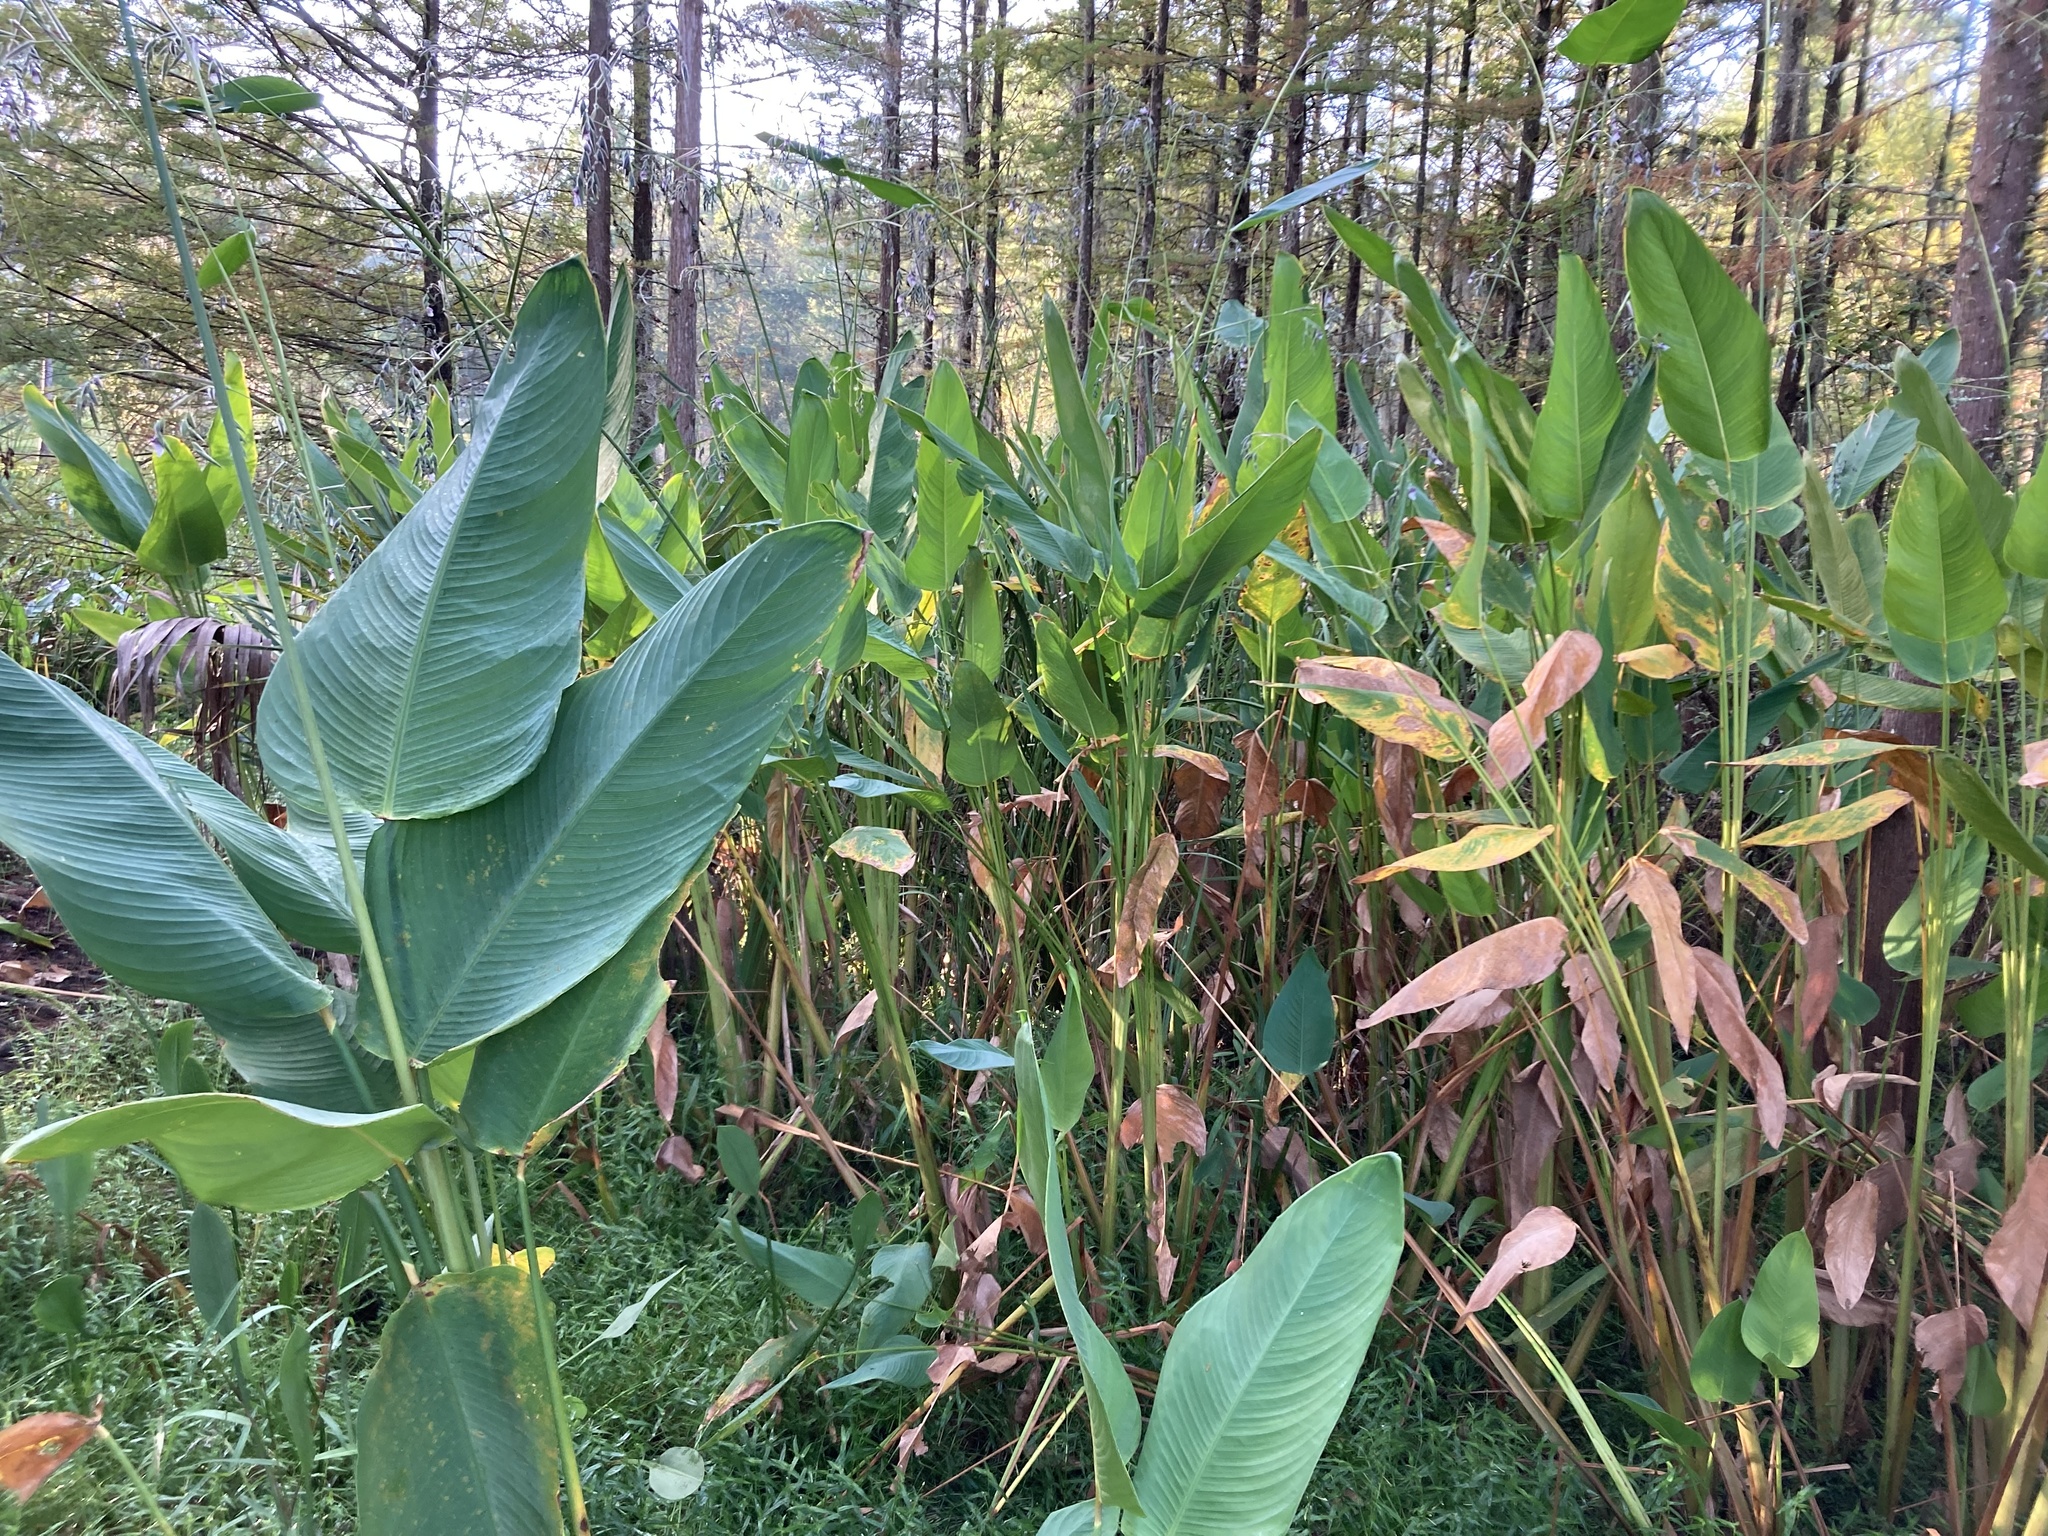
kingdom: Plantae
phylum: Tracheophyta
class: Liliopsida
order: Zingiberales
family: Marantaceae
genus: Thalia
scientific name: Thalia geniculata
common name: Arrowroot
